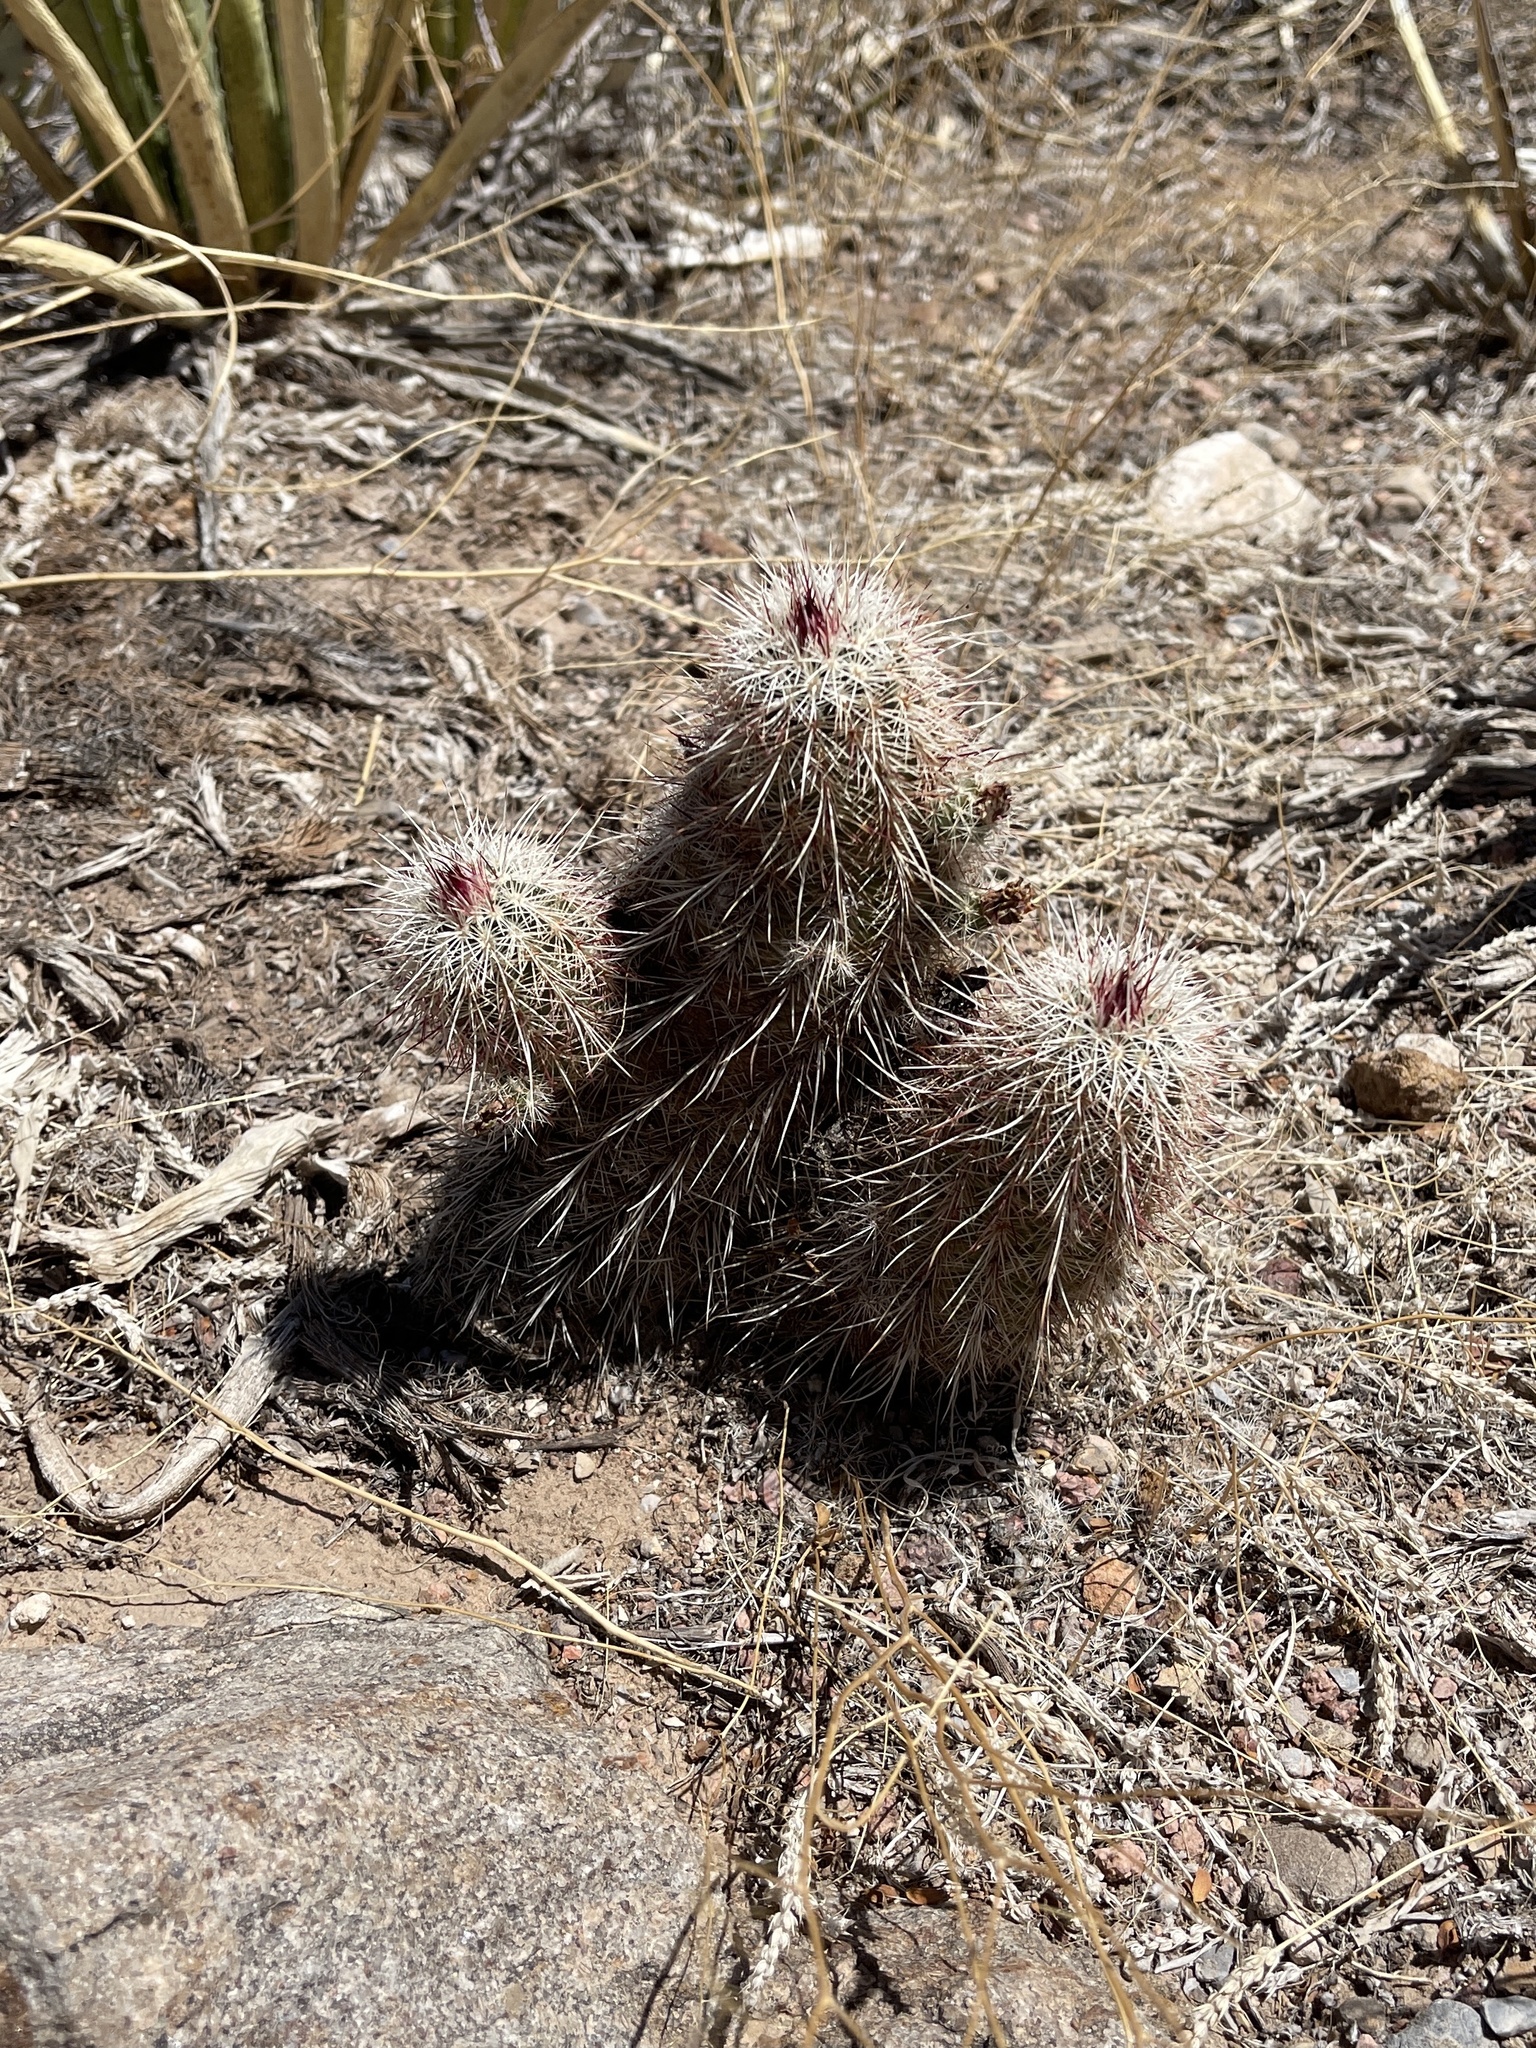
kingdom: Plantae
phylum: Tracheophyta
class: Magnoliopsida
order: Caryophyllales
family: Cactaceae
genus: Echinocereus
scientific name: Echinocereus viridiflorus
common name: Nylon hedgehog cactus
